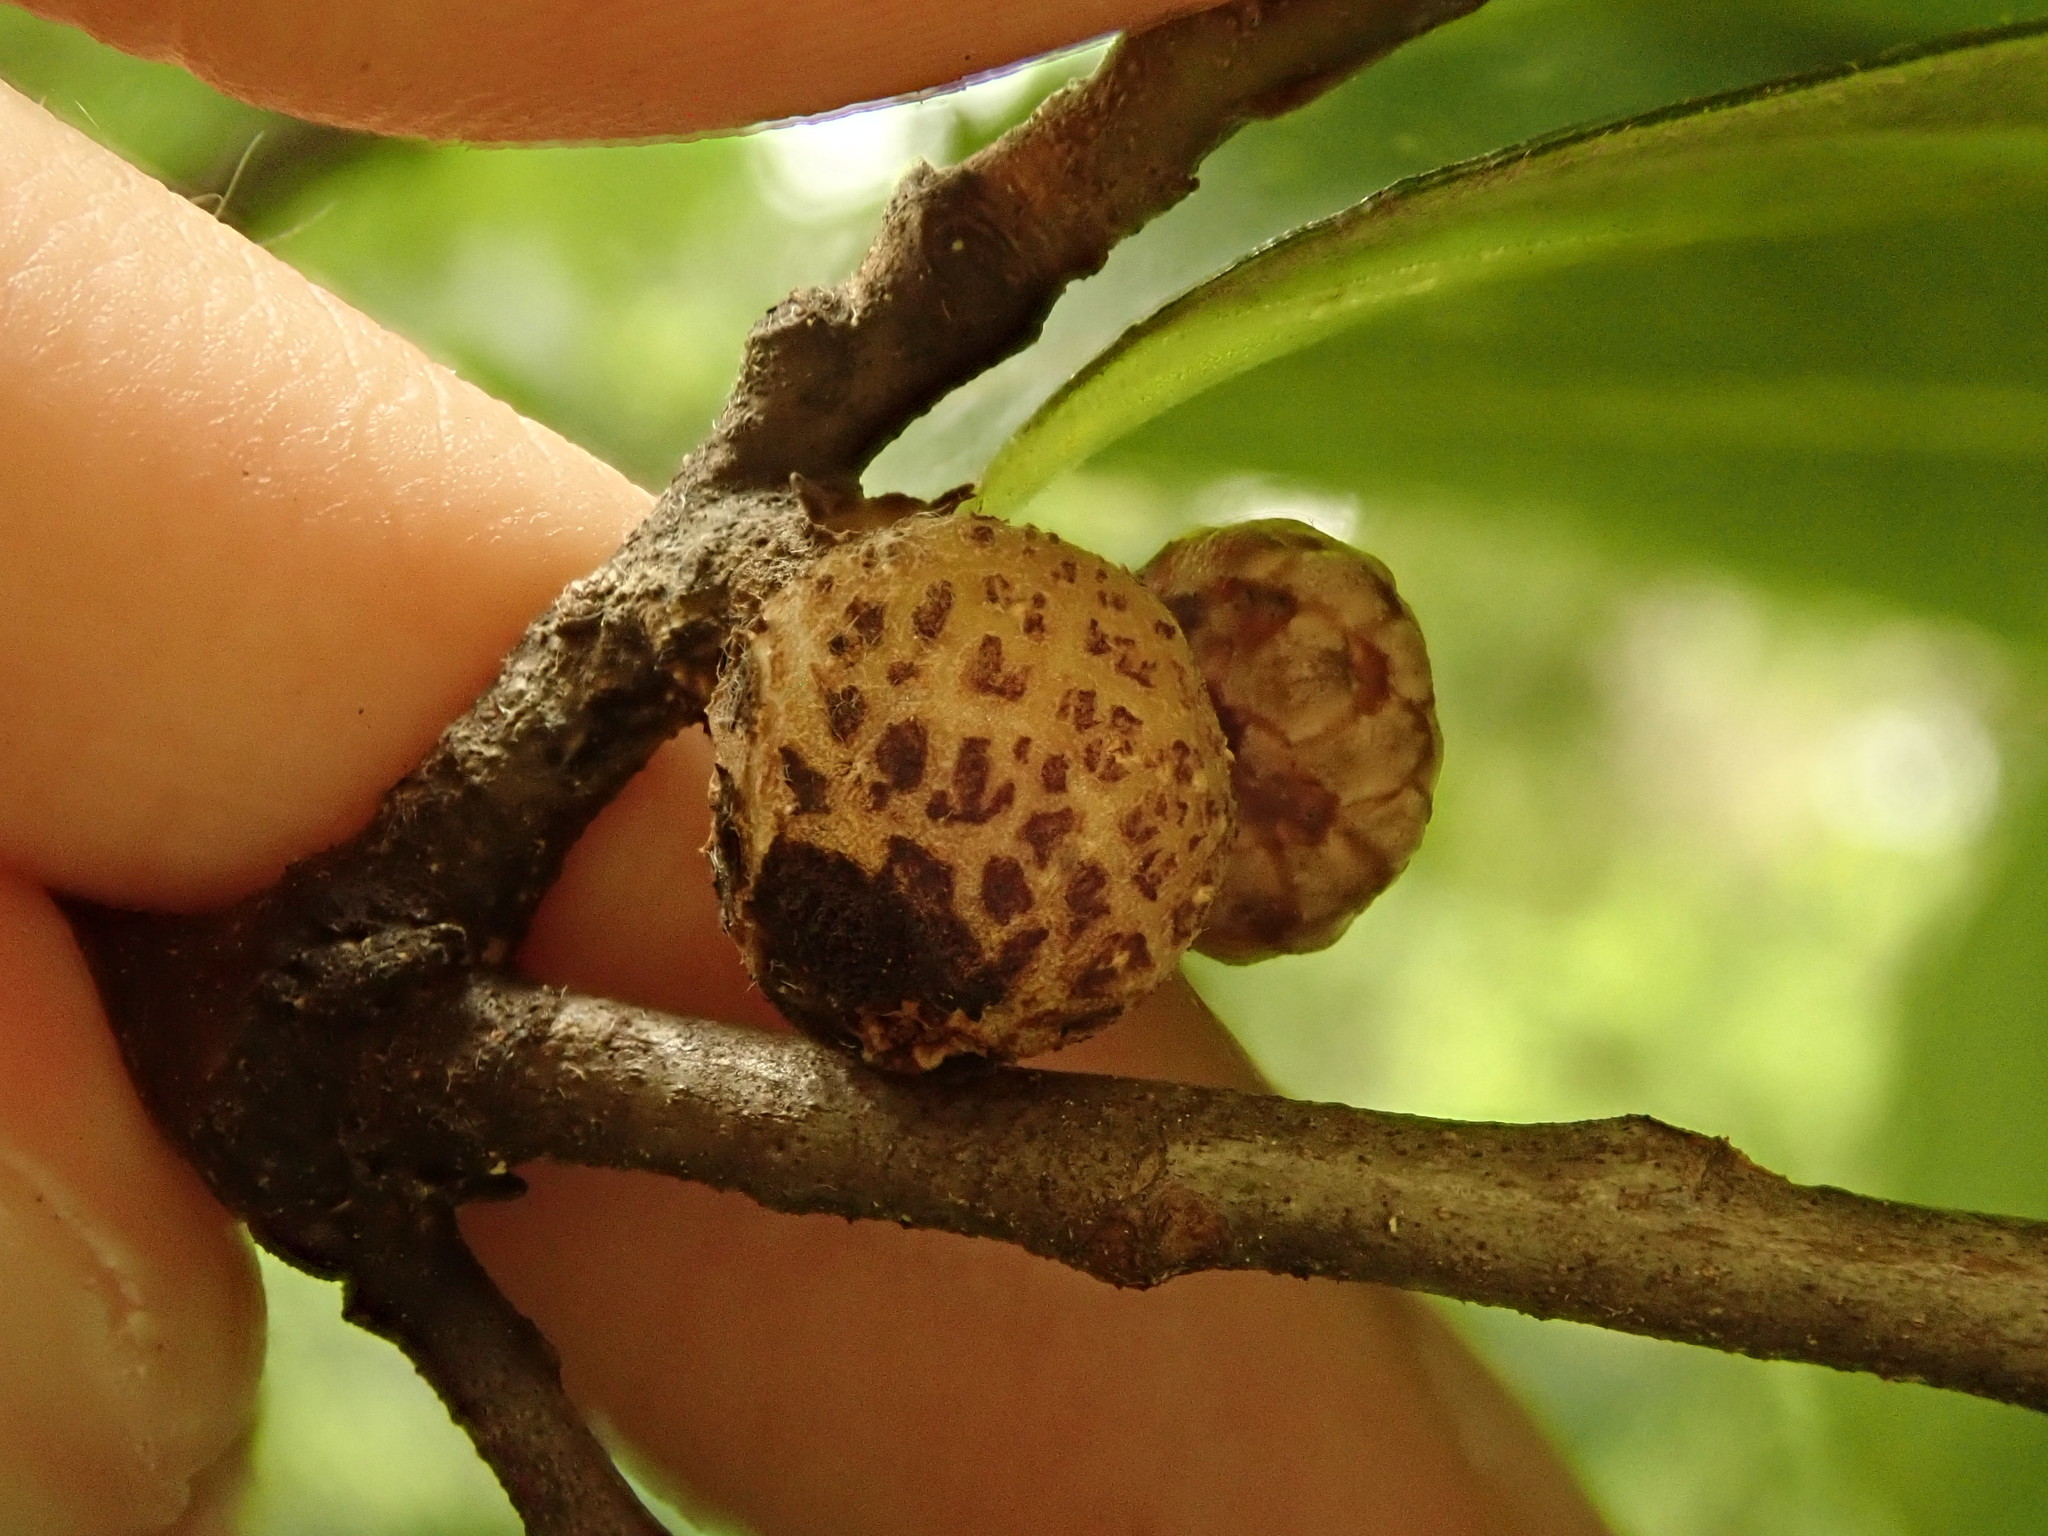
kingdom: Animalia
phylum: Arthropoda
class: Insecta
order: Hymenoptera
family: Cynipidae
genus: Callirhytis
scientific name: Callirhytis
